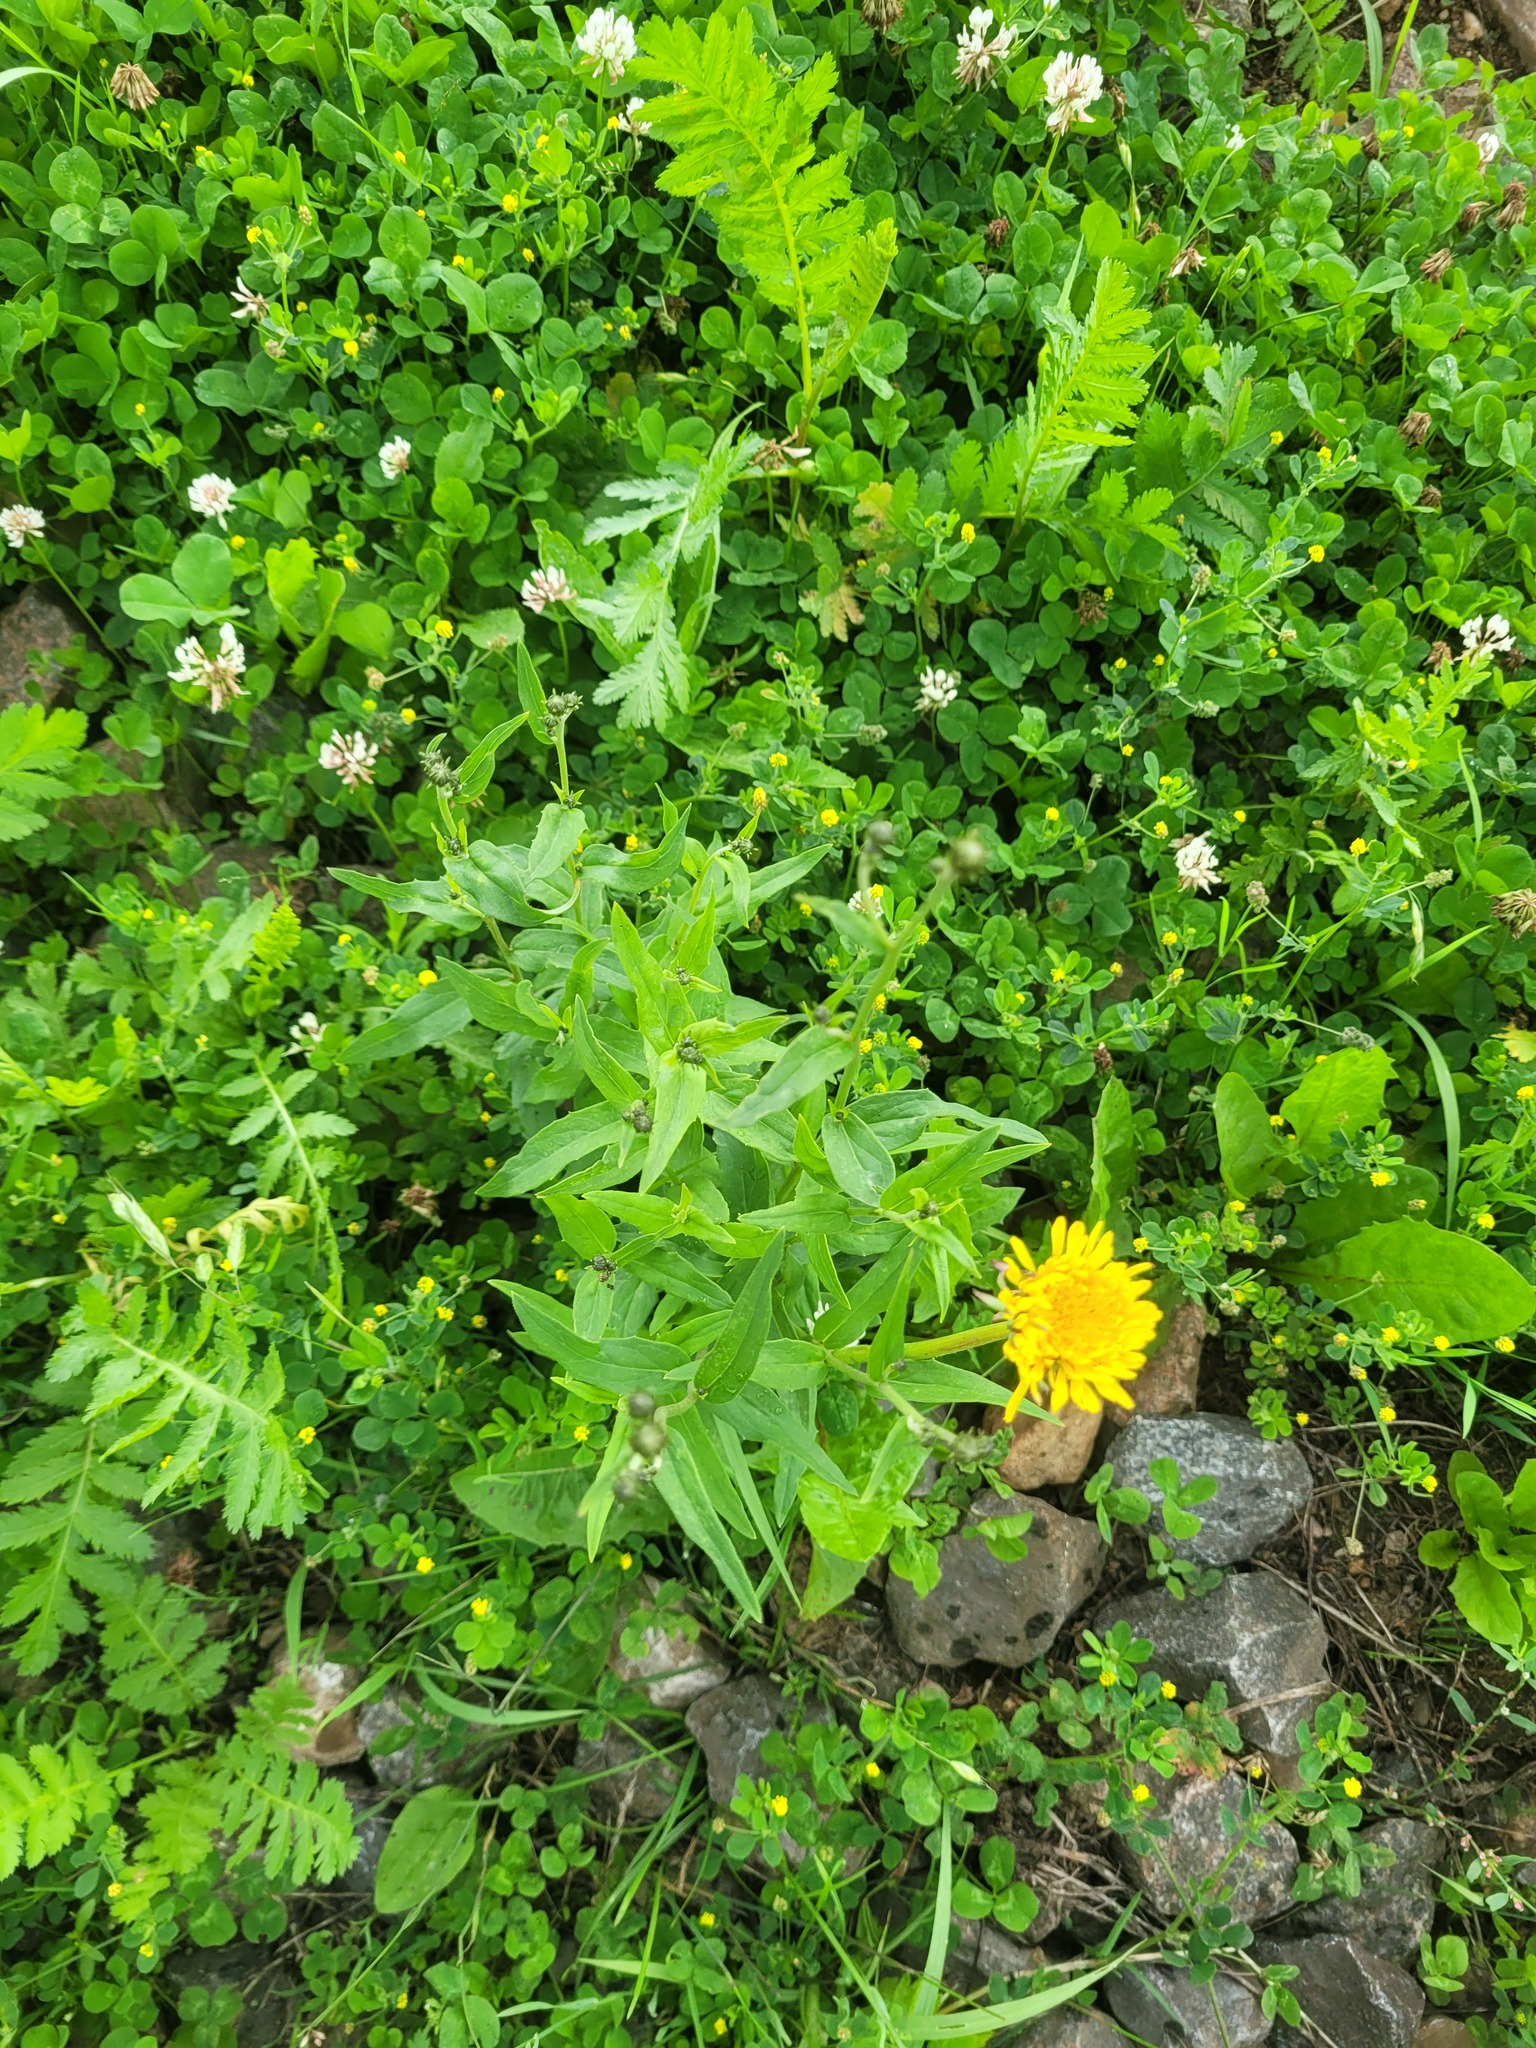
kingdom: Plantae
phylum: Tracheophyta
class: Magnoliopsida
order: Asterales
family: Asteraceae
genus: Hieracium
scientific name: Hieracium umbellatum
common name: Northern hawkweed
